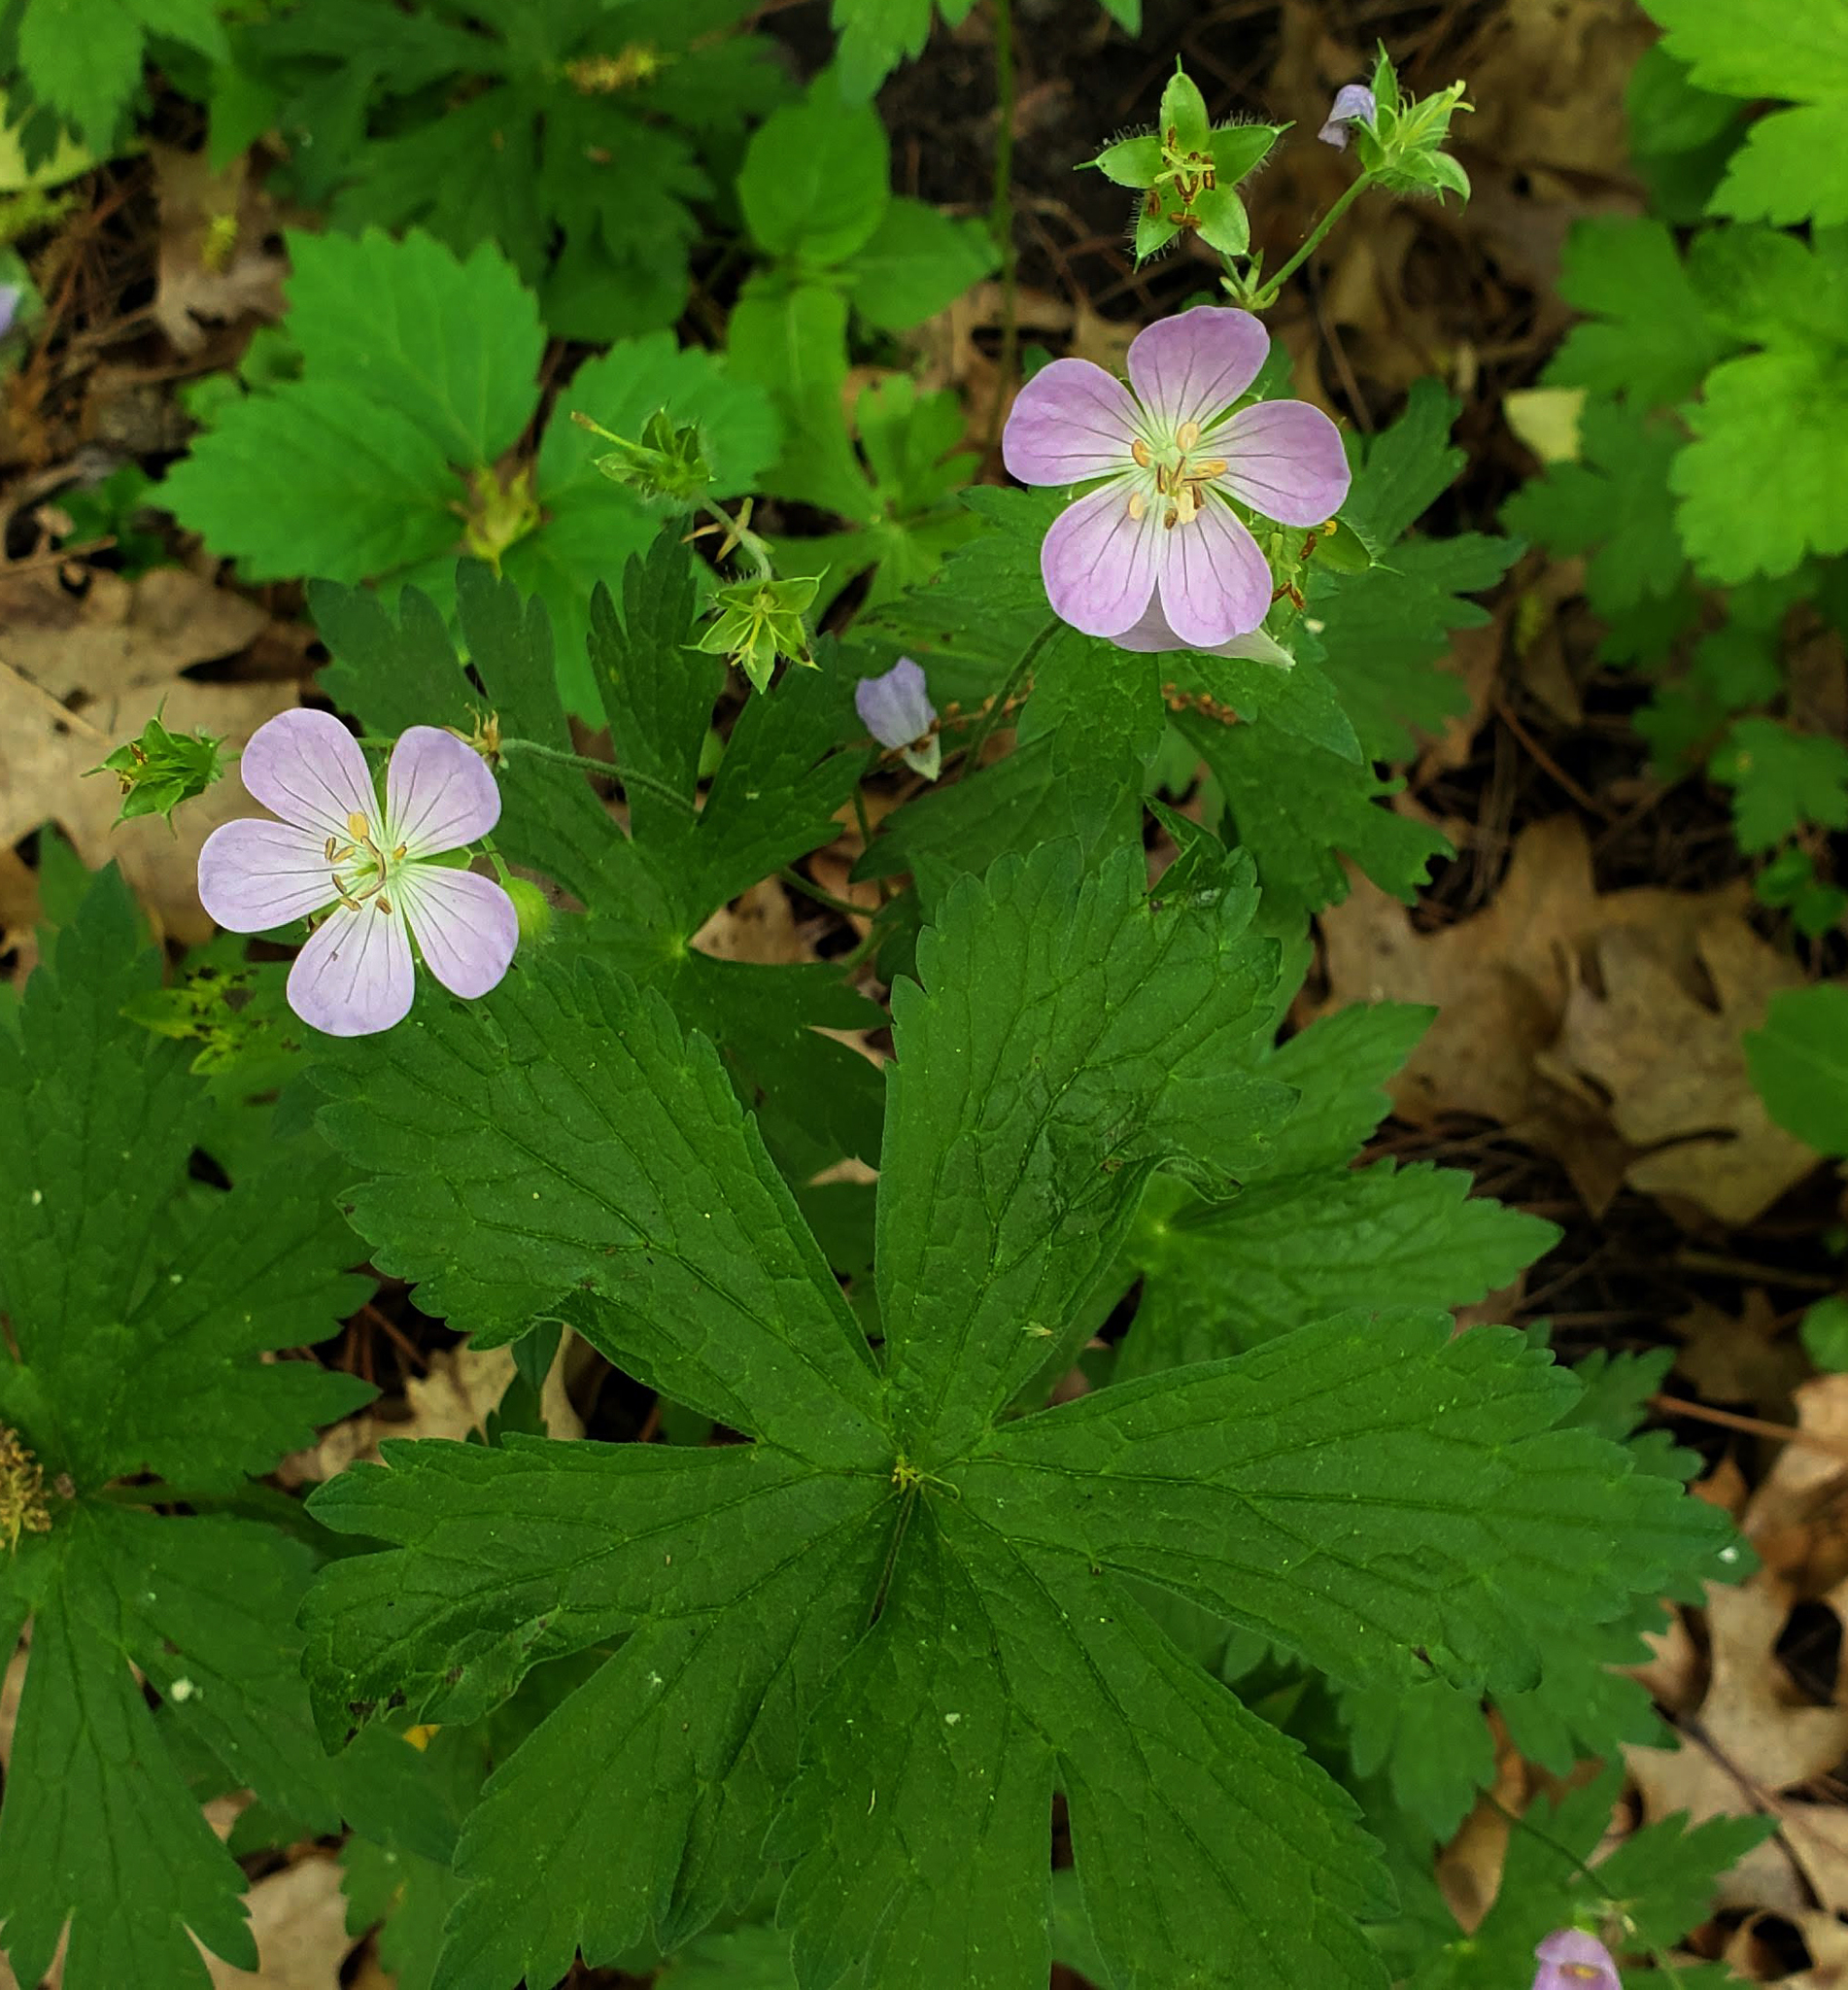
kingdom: Plantae
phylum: Tracheophyta
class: Magnoliopsida
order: Geraniales
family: Geraniaceae
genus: Geranium
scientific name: Geranium maculatum
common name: Spotted geranium
